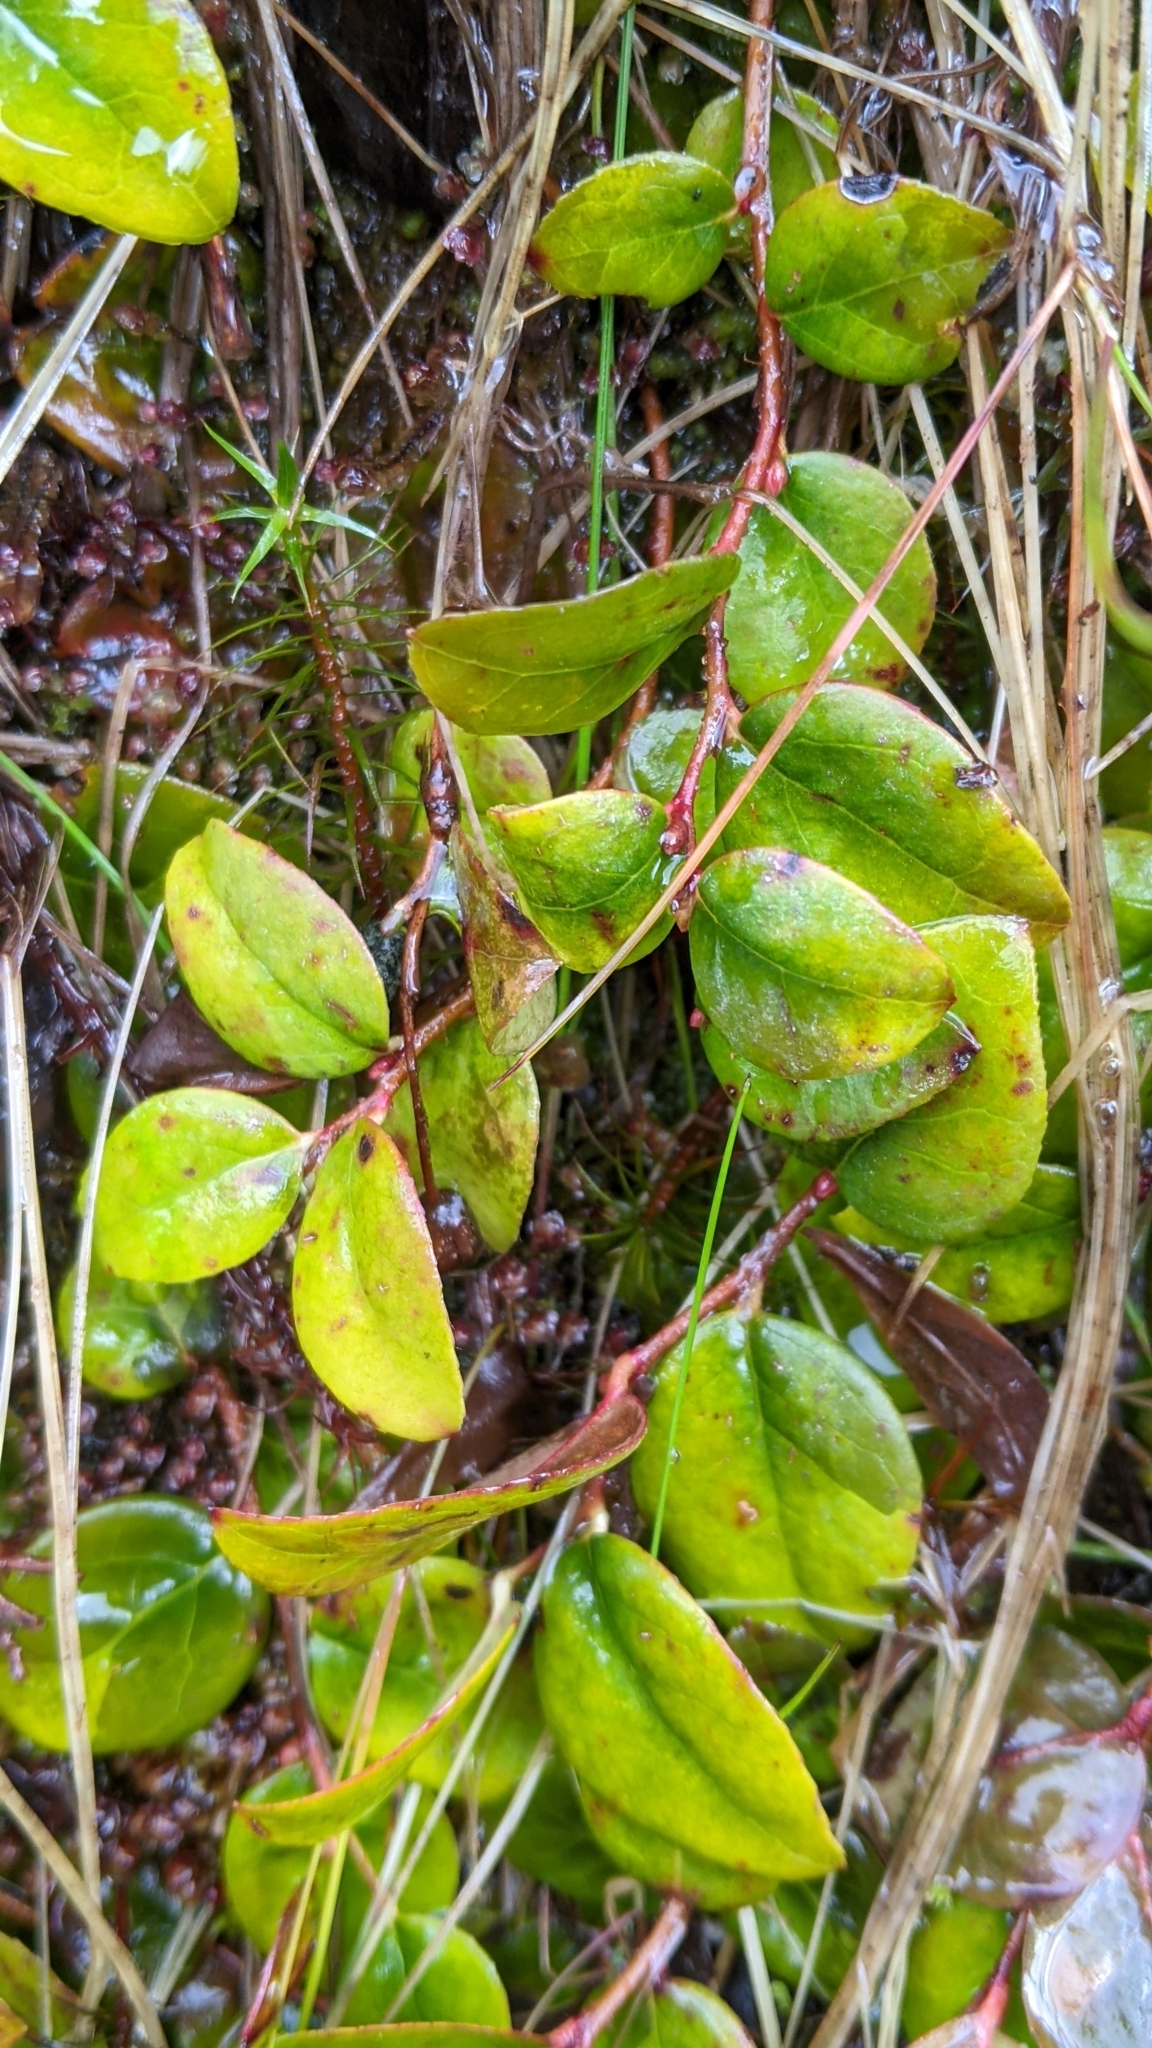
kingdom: Plantae
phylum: Tracheophyta
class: Magnoliopsida
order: Ericales
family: Ericaceae
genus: Gaultheria
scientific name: Gaultheria ovatifolia
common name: Oregon wintergreen
